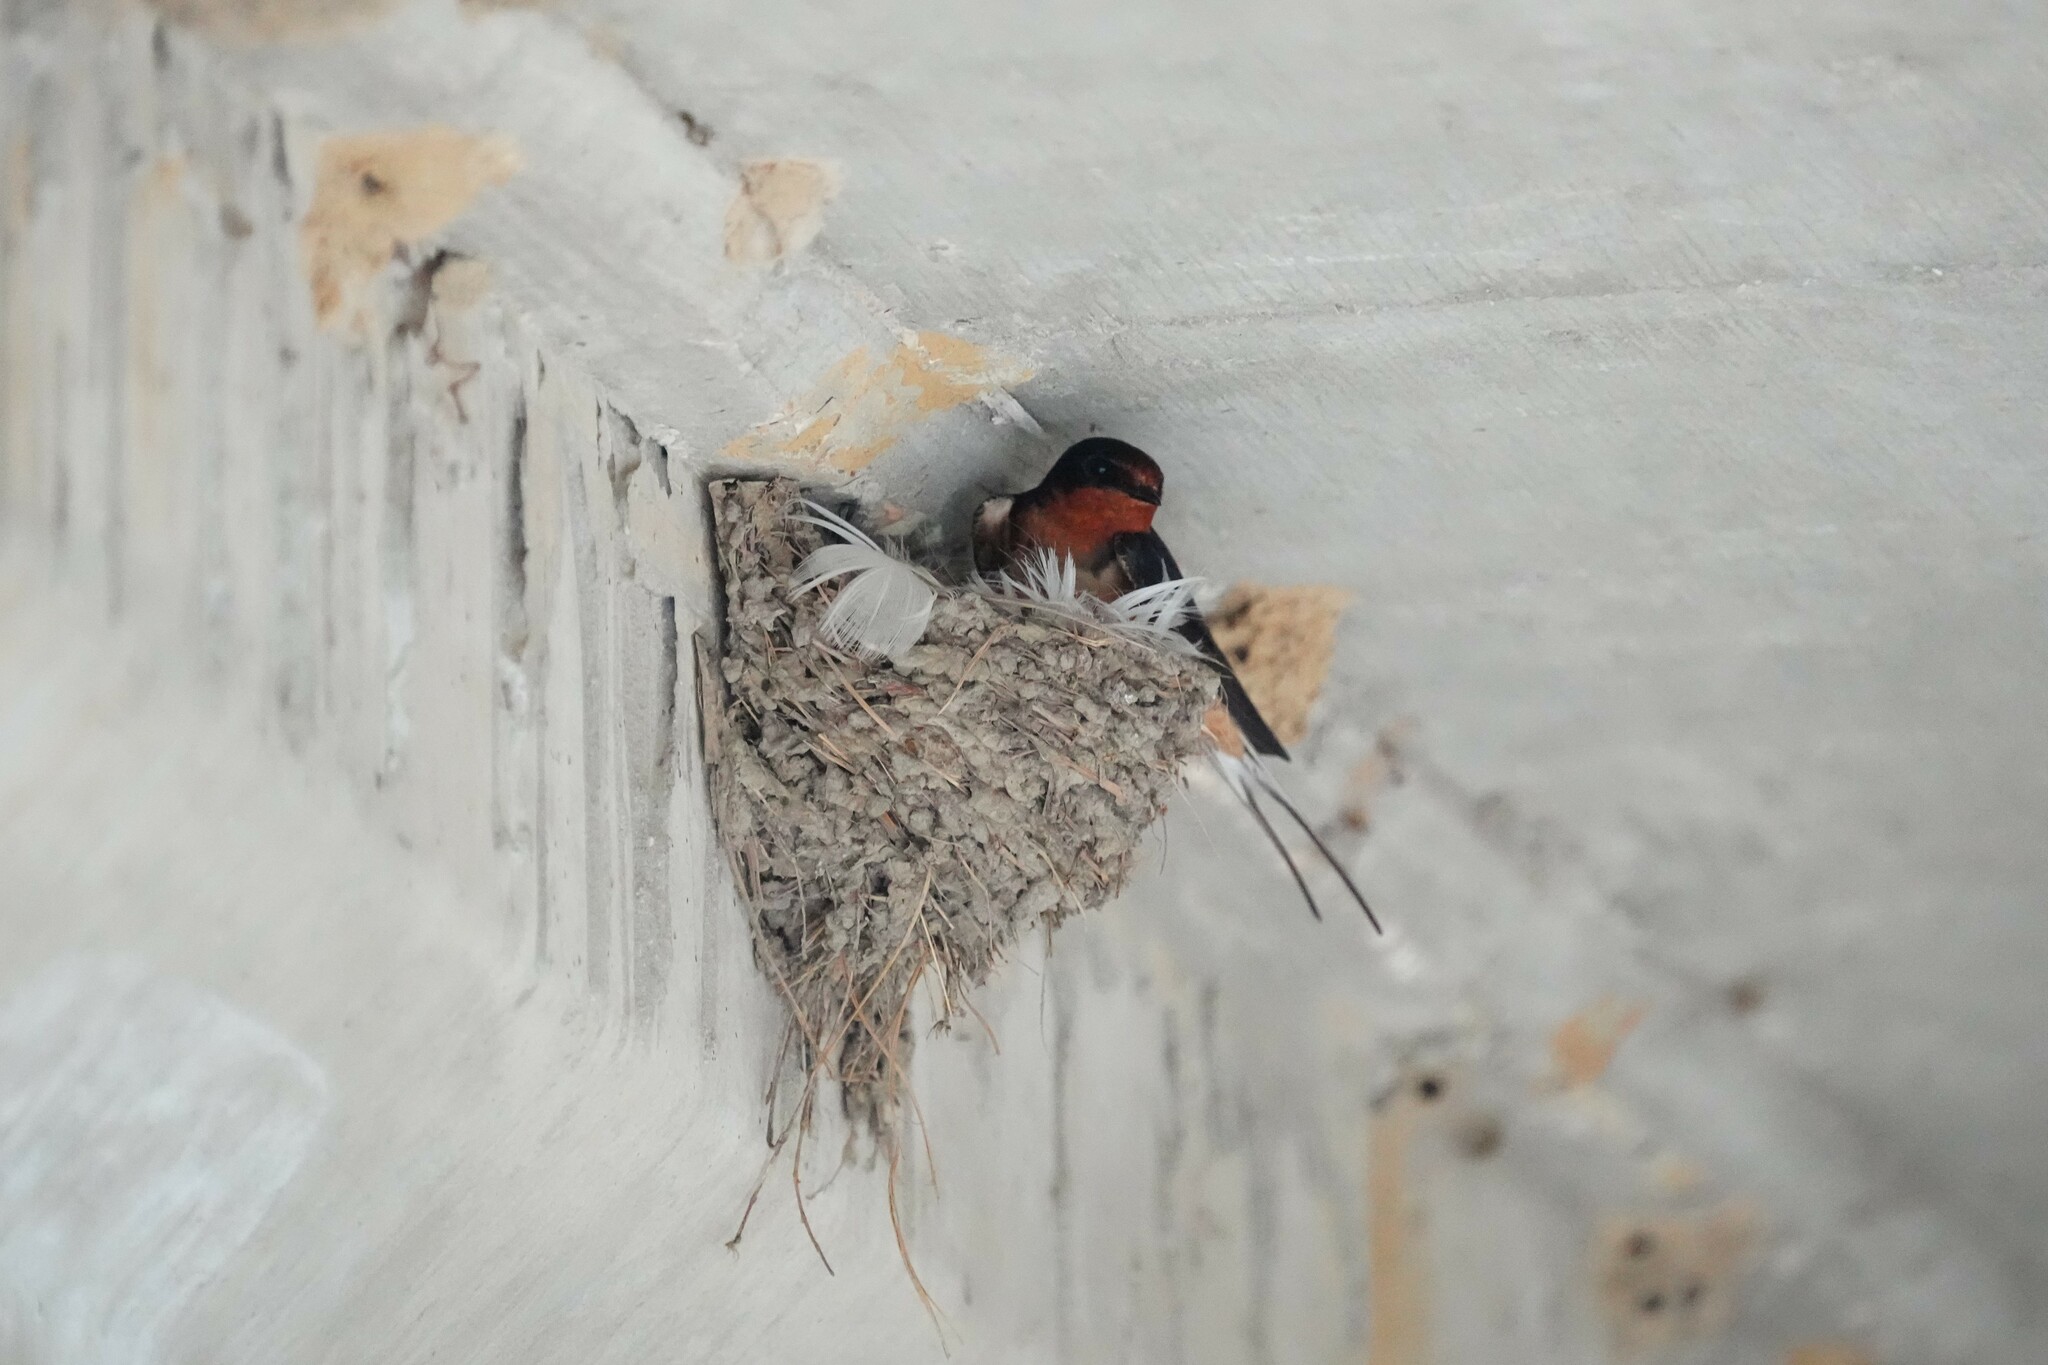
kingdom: Animalia
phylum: Chordata
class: Aves
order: Passeriformes
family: Hirundinidae
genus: Hirundo
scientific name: Hirundo rustica
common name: Barn swallow
